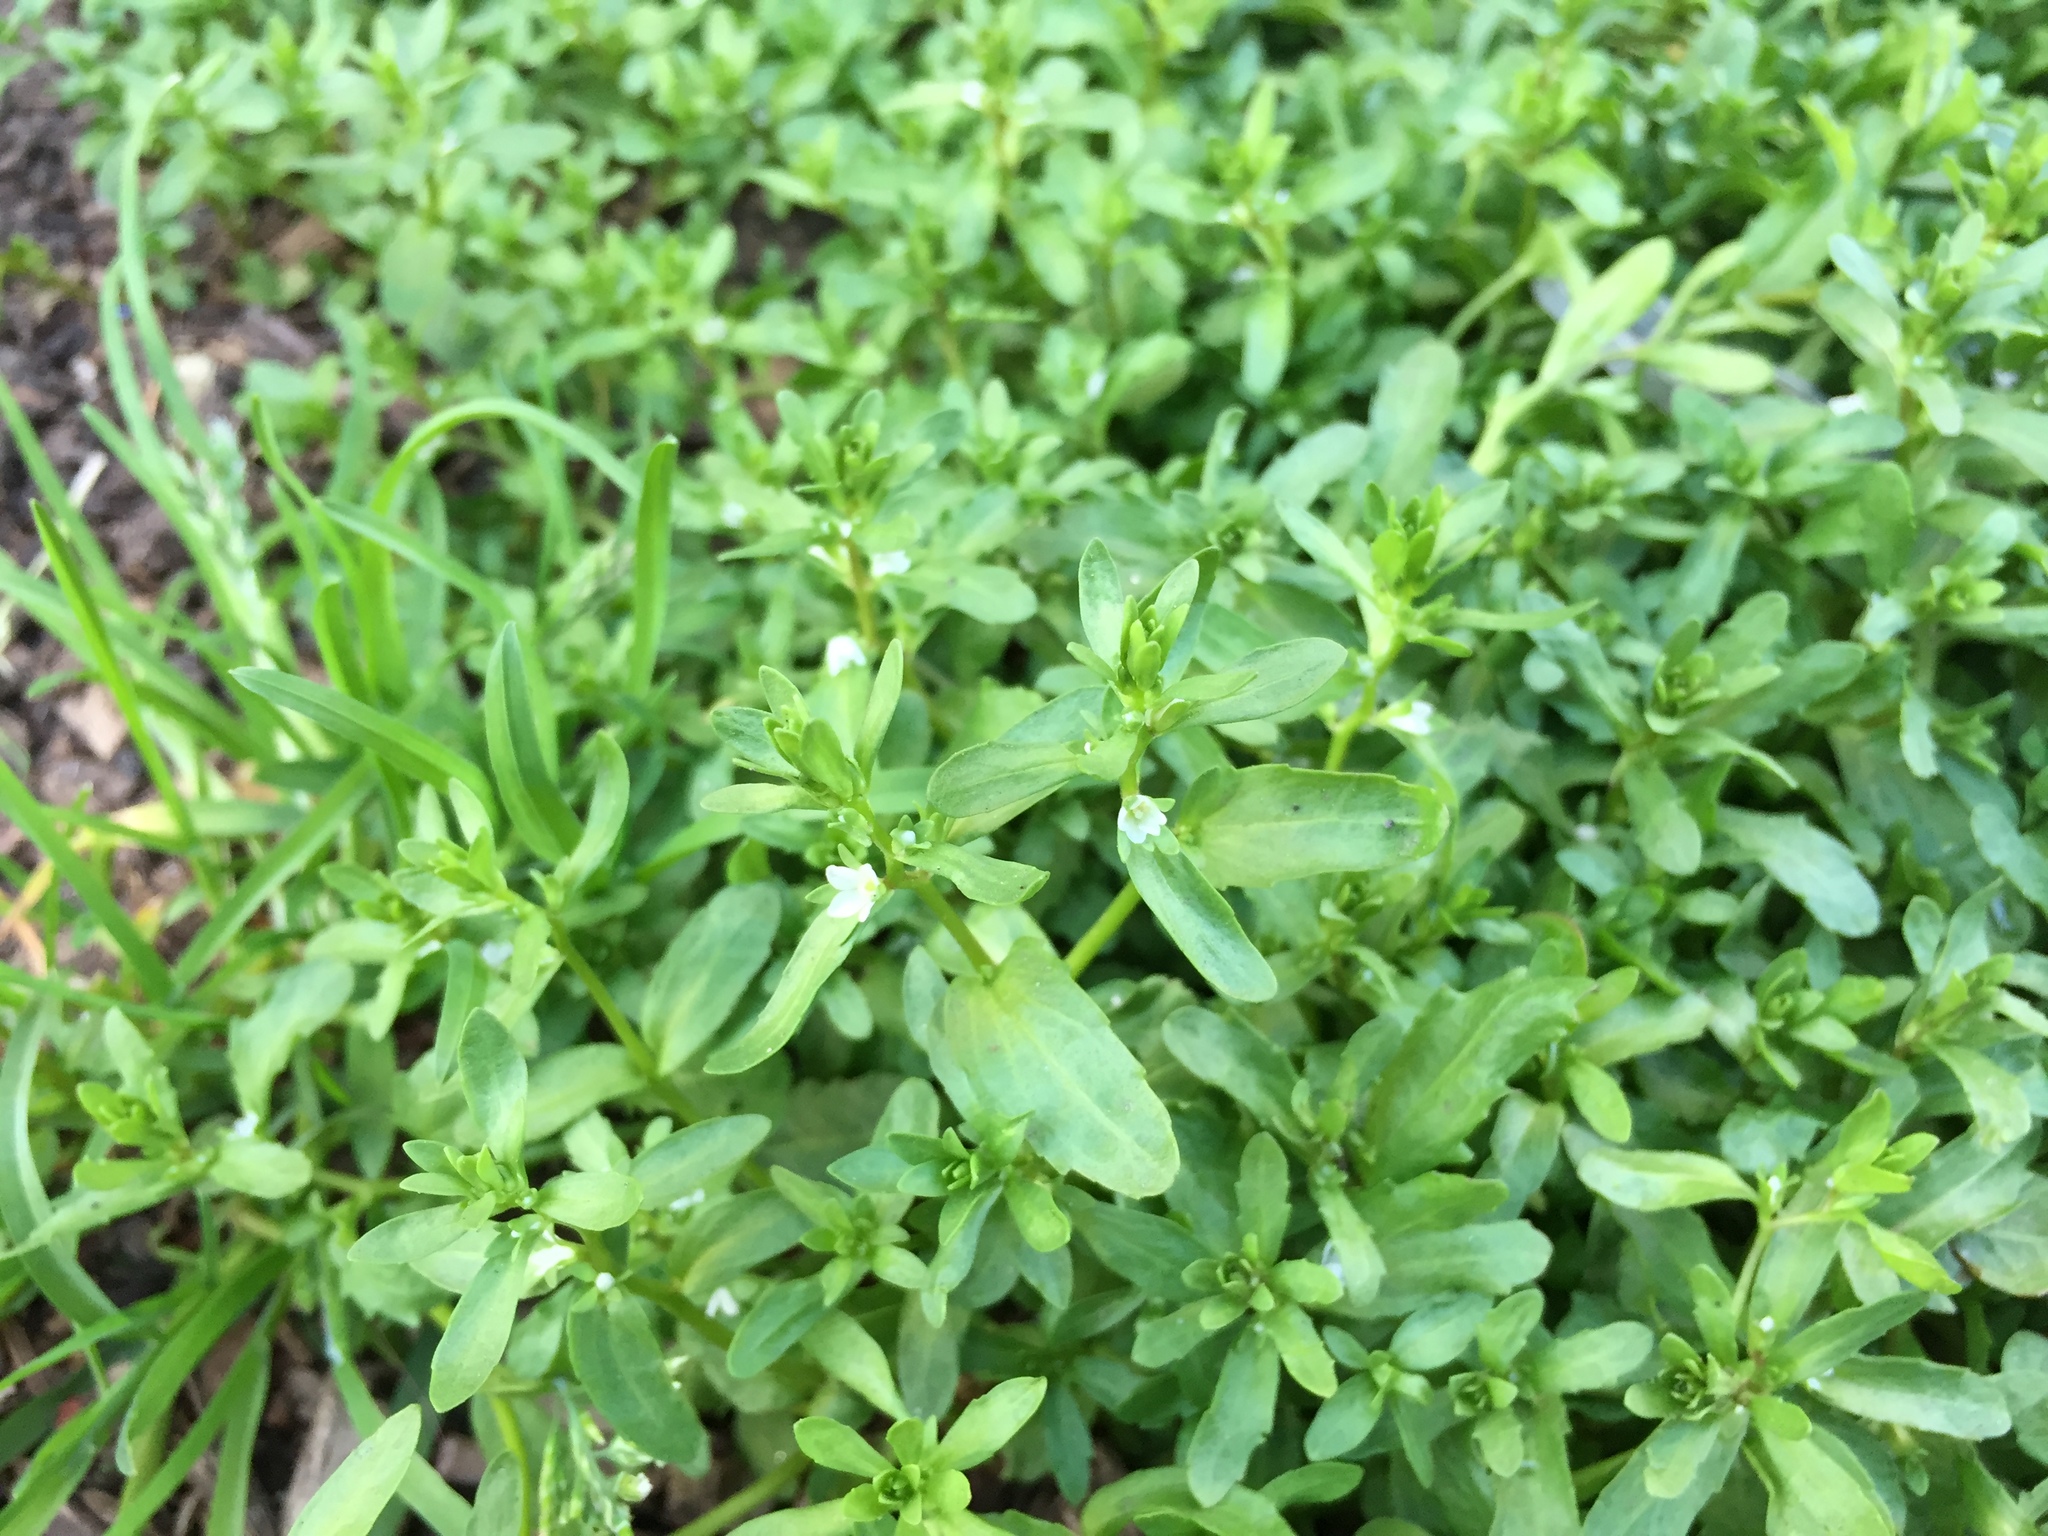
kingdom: Plantae
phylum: Tracheophyta
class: Magnoliopsida
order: Lamiales
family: Plantaginaceae
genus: Veronica
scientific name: Veronica peregrina
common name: Neckweed
